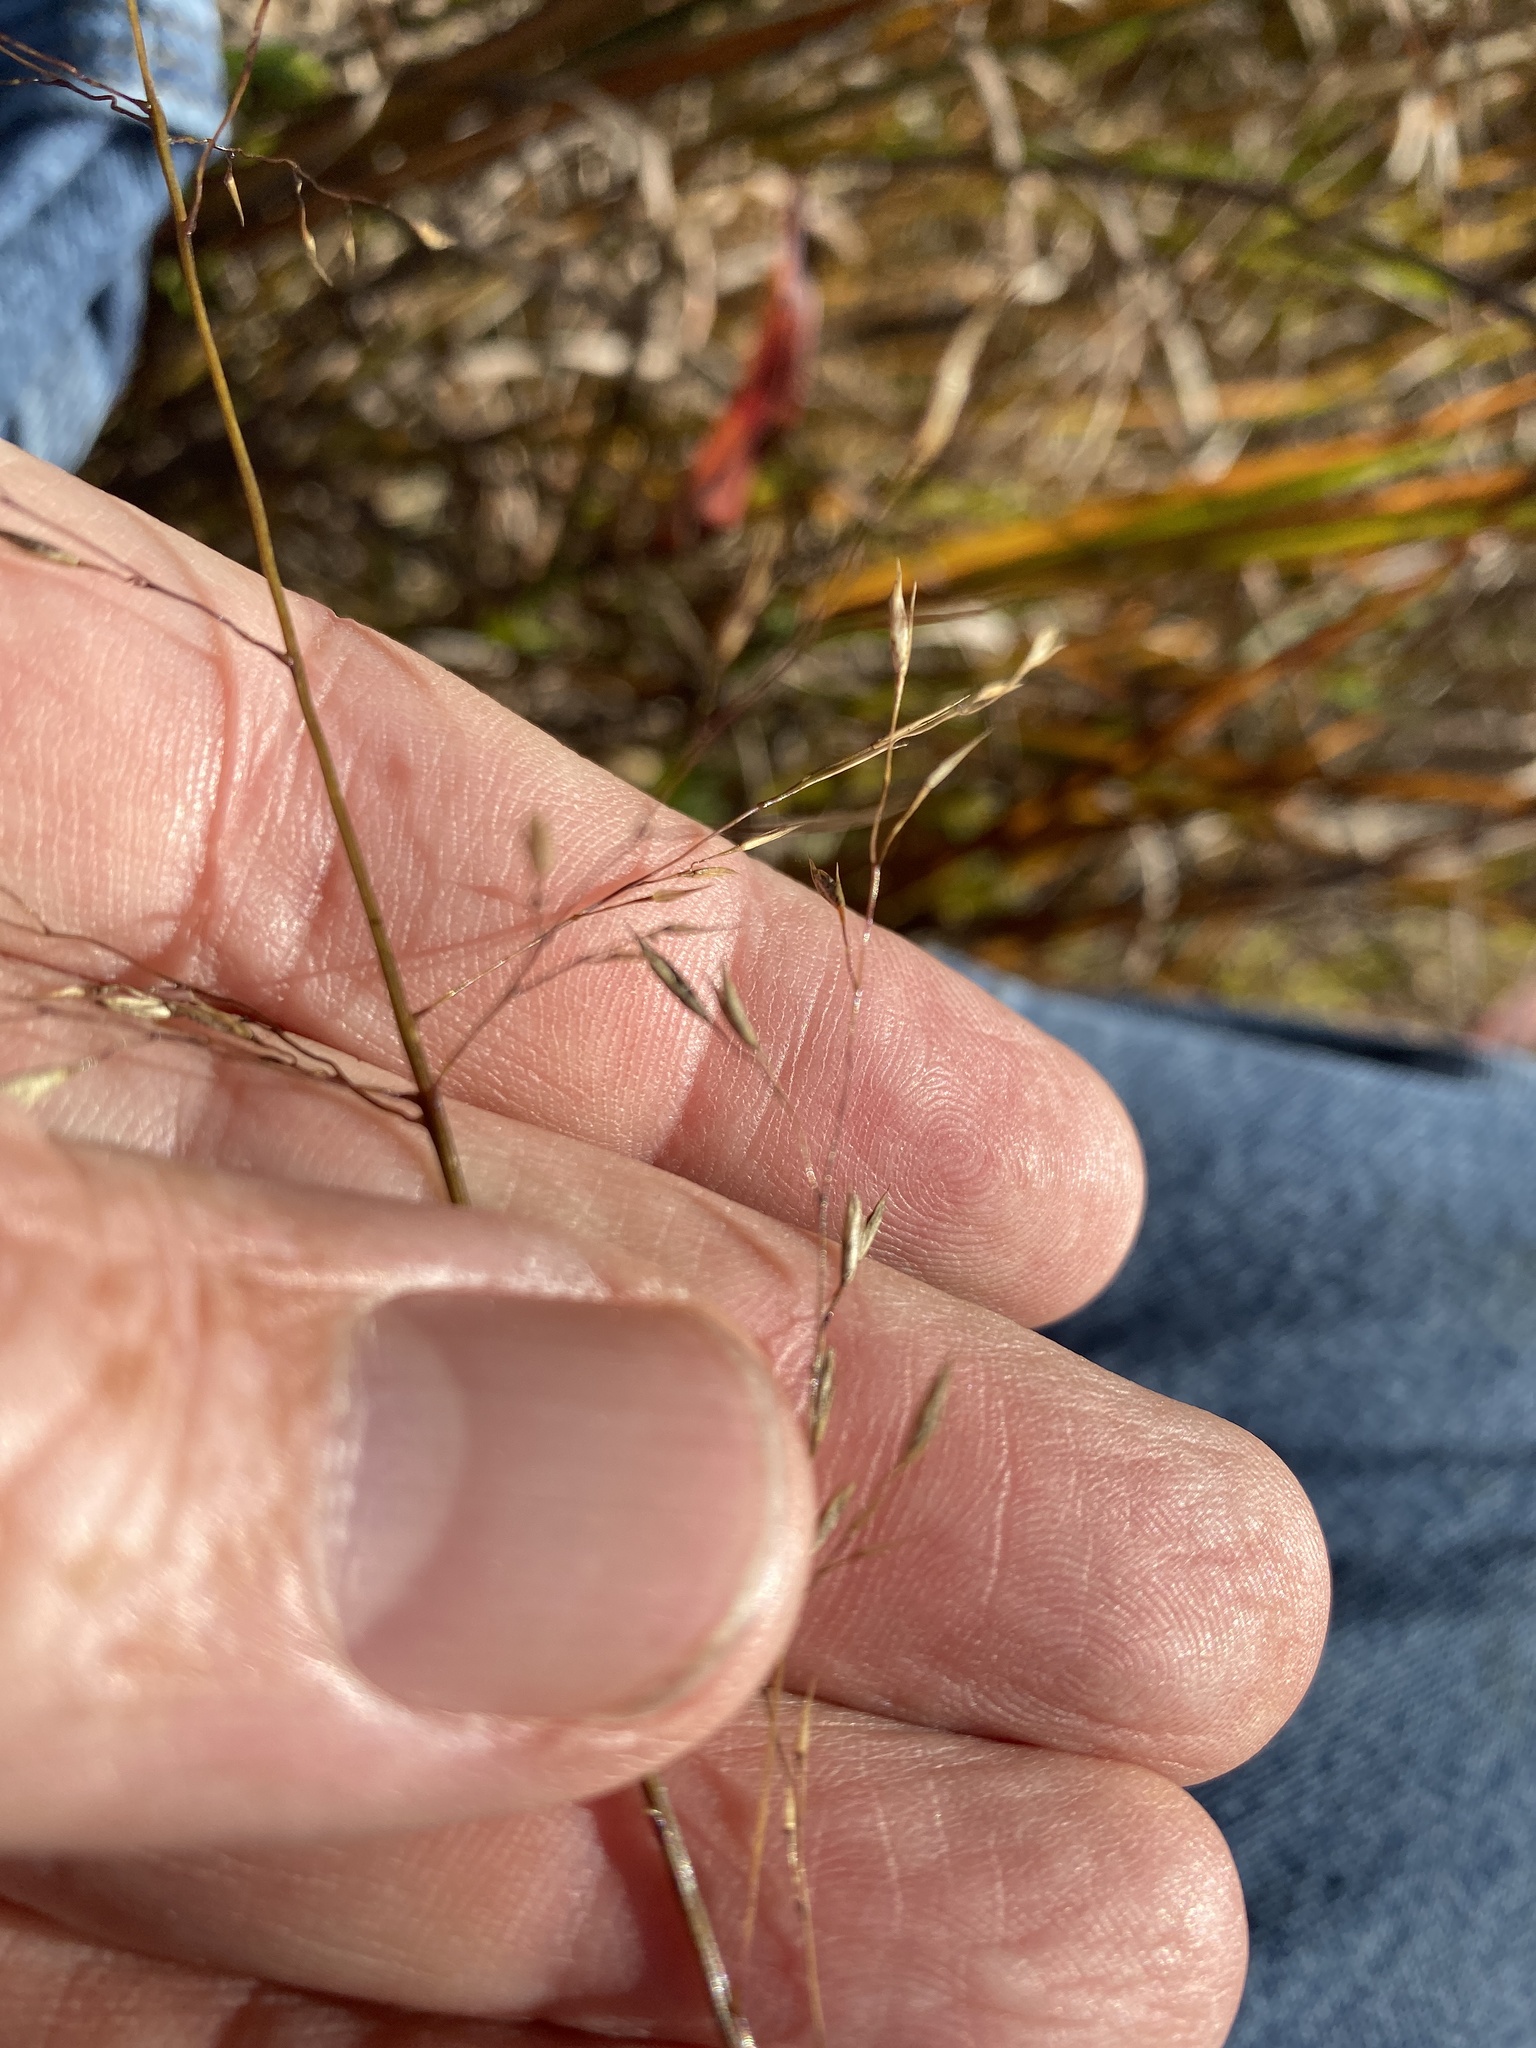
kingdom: Plantae
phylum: Tracheophyta
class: Liliopsida
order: Poales
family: Poaceae
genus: Sporobolus
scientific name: Sporobolus heterolepis
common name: Prairie dropseed
